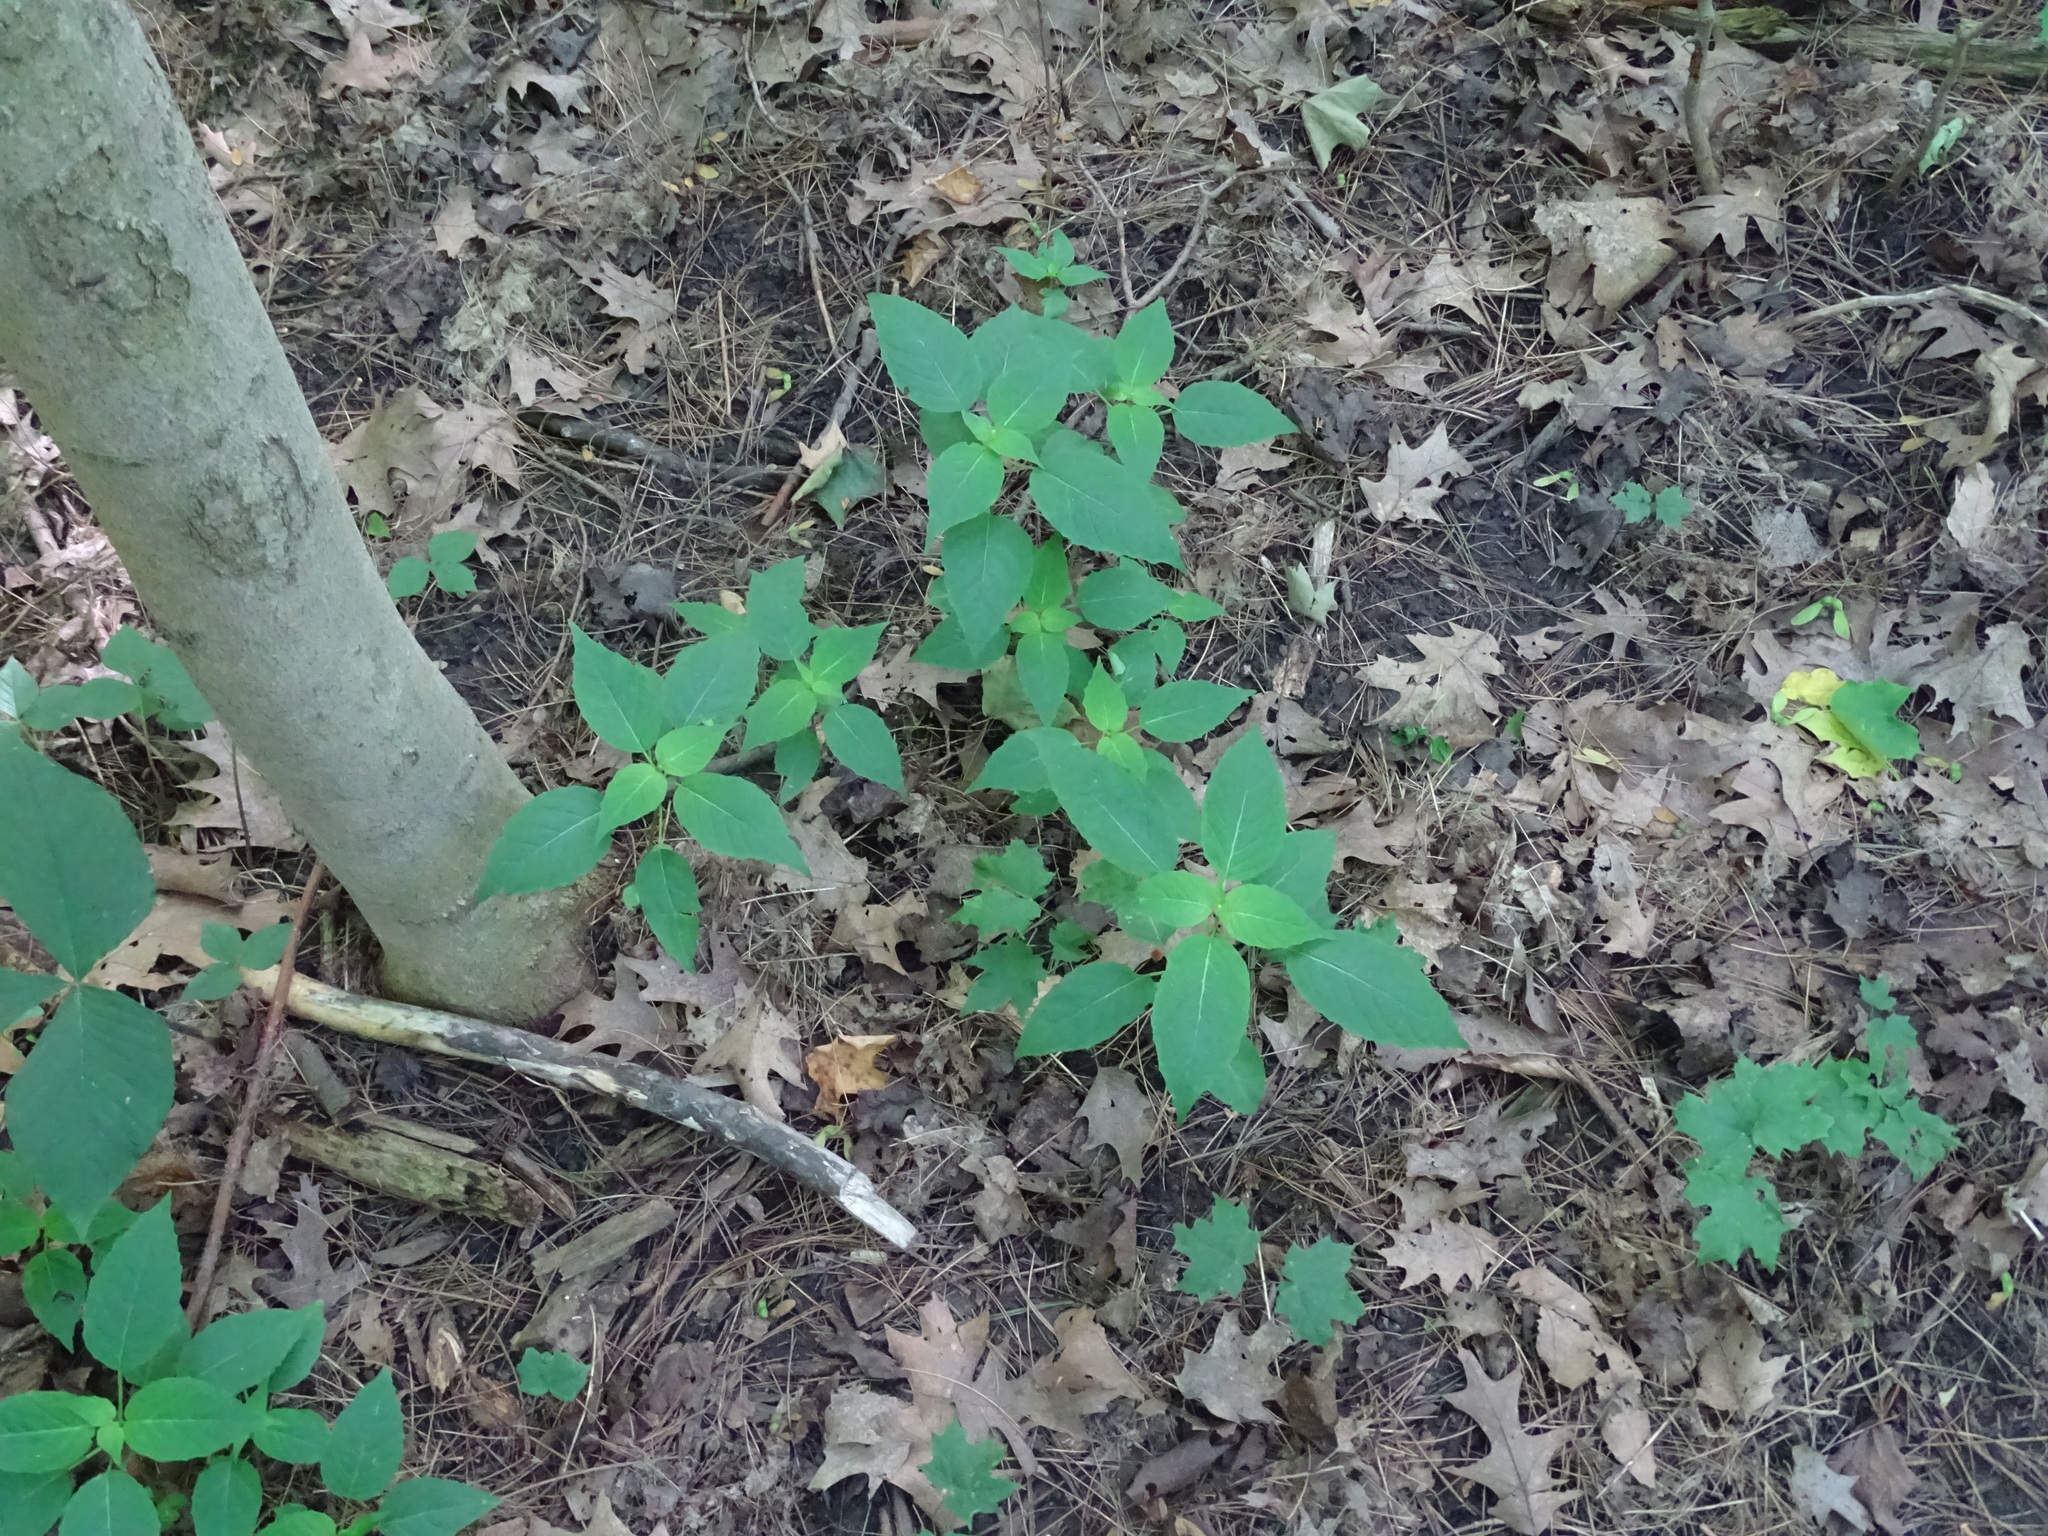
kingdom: Plantae
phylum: Tracheophyta
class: Magnoliopsida
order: Myrtales
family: Onagraceae
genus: Circaea
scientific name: Circaea canadensis
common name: Broad-leaved enchanter's nightshade
